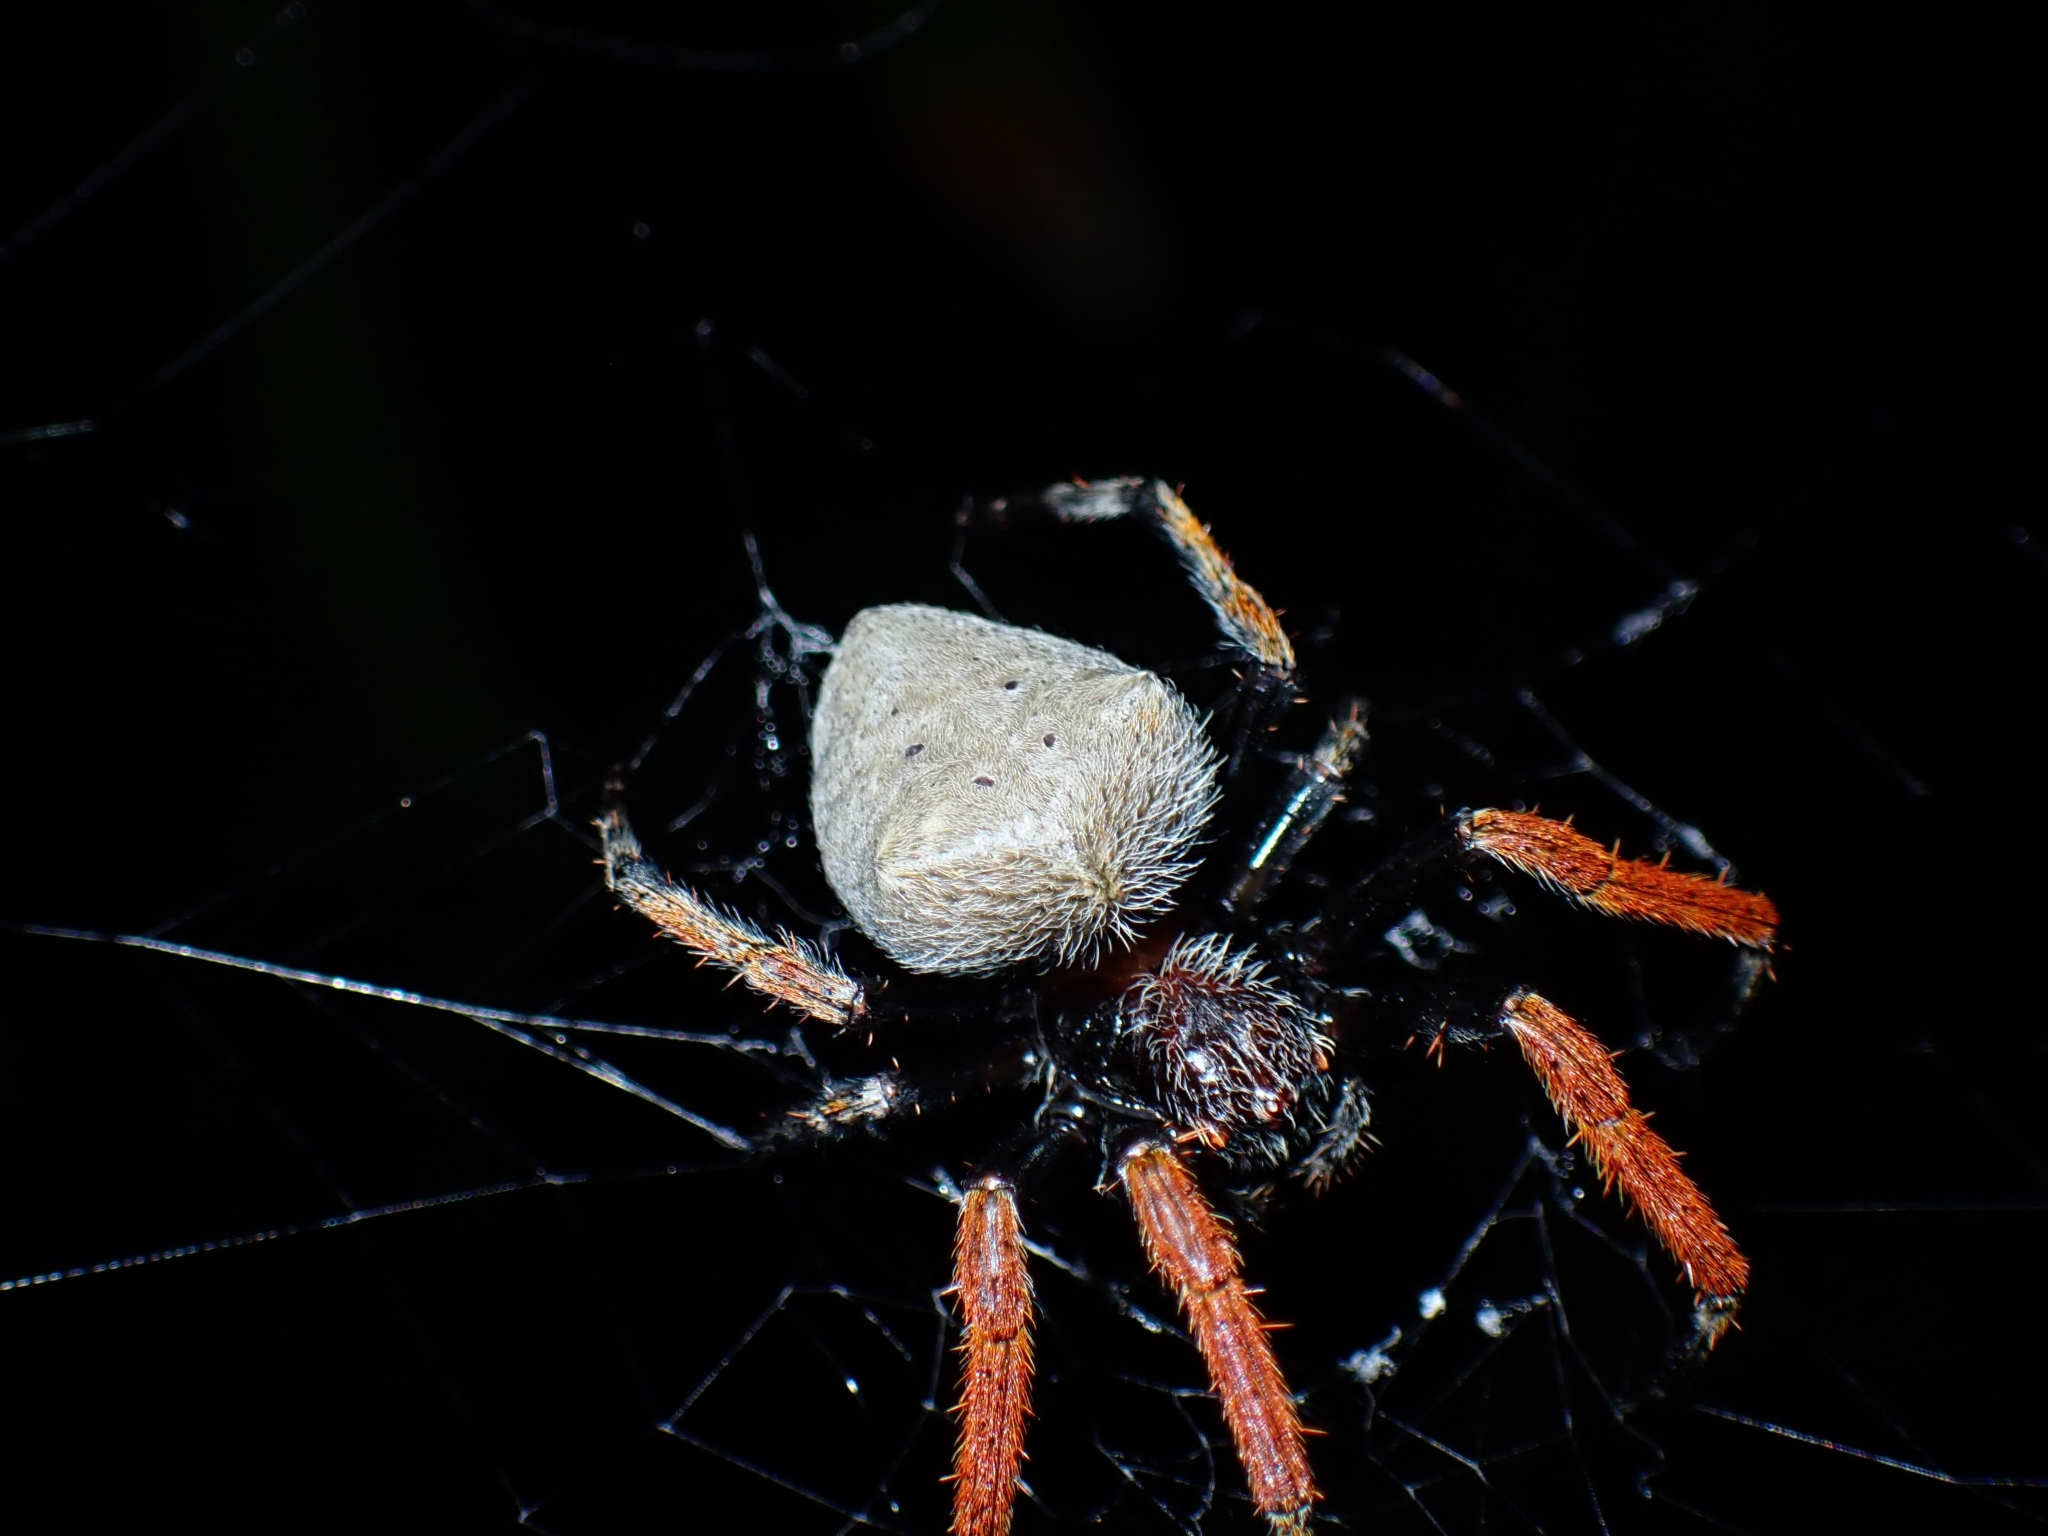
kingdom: Animalia
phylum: Arthropoda
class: Arachnida
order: Araneae
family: Araneidae
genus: Hortophora
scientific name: Hortophora capitalis
